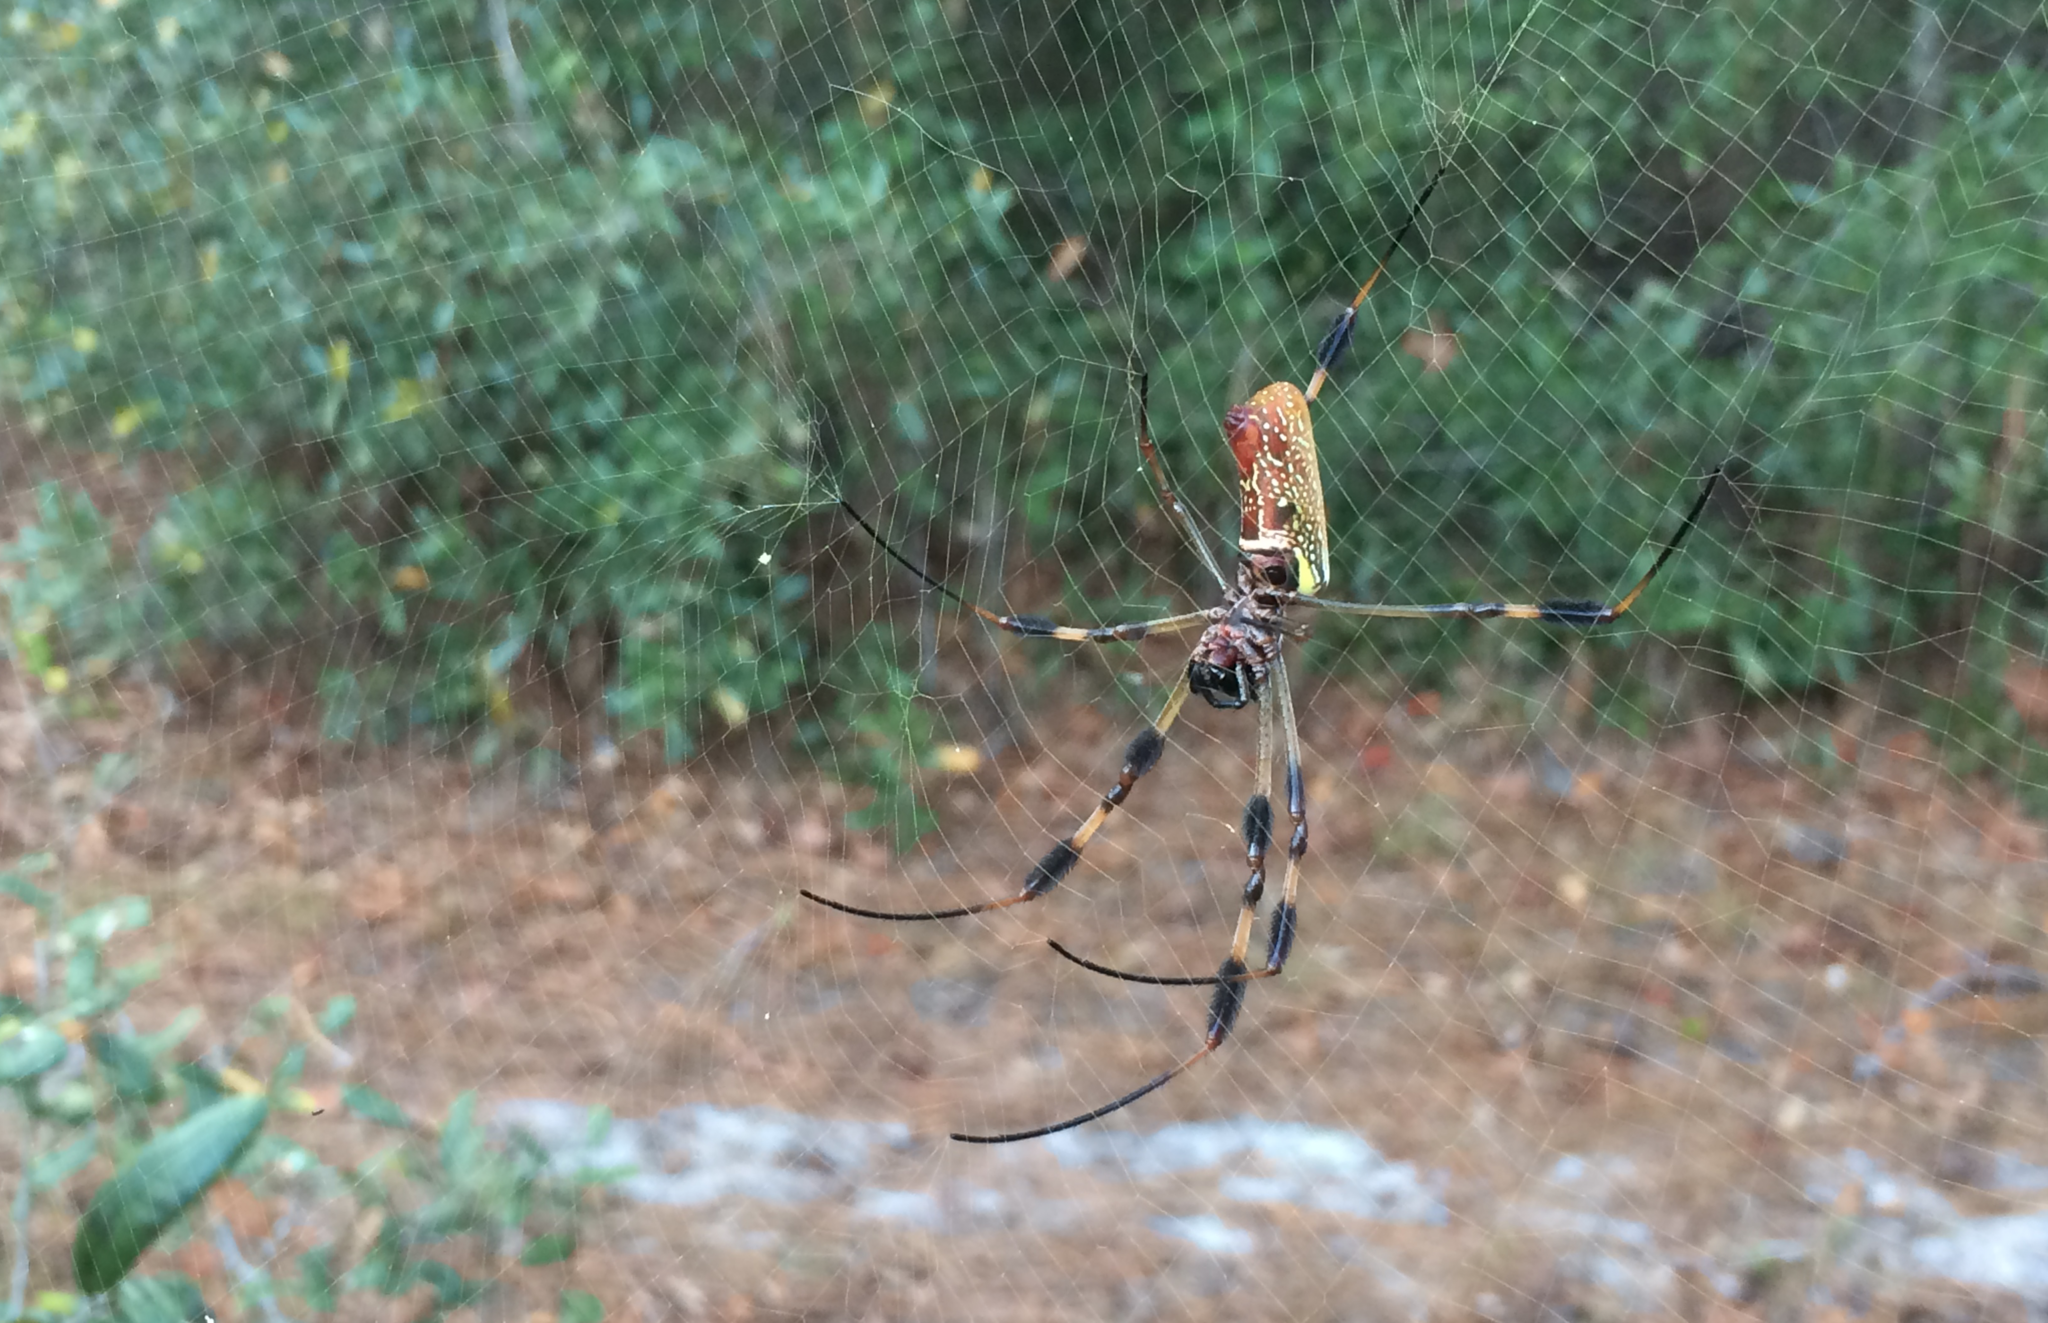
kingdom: Animalia
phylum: Arthropoda
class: Arachnida
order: Araneae
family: Araneidae
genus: Trichonephila
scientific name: Trichonephila clavipes
